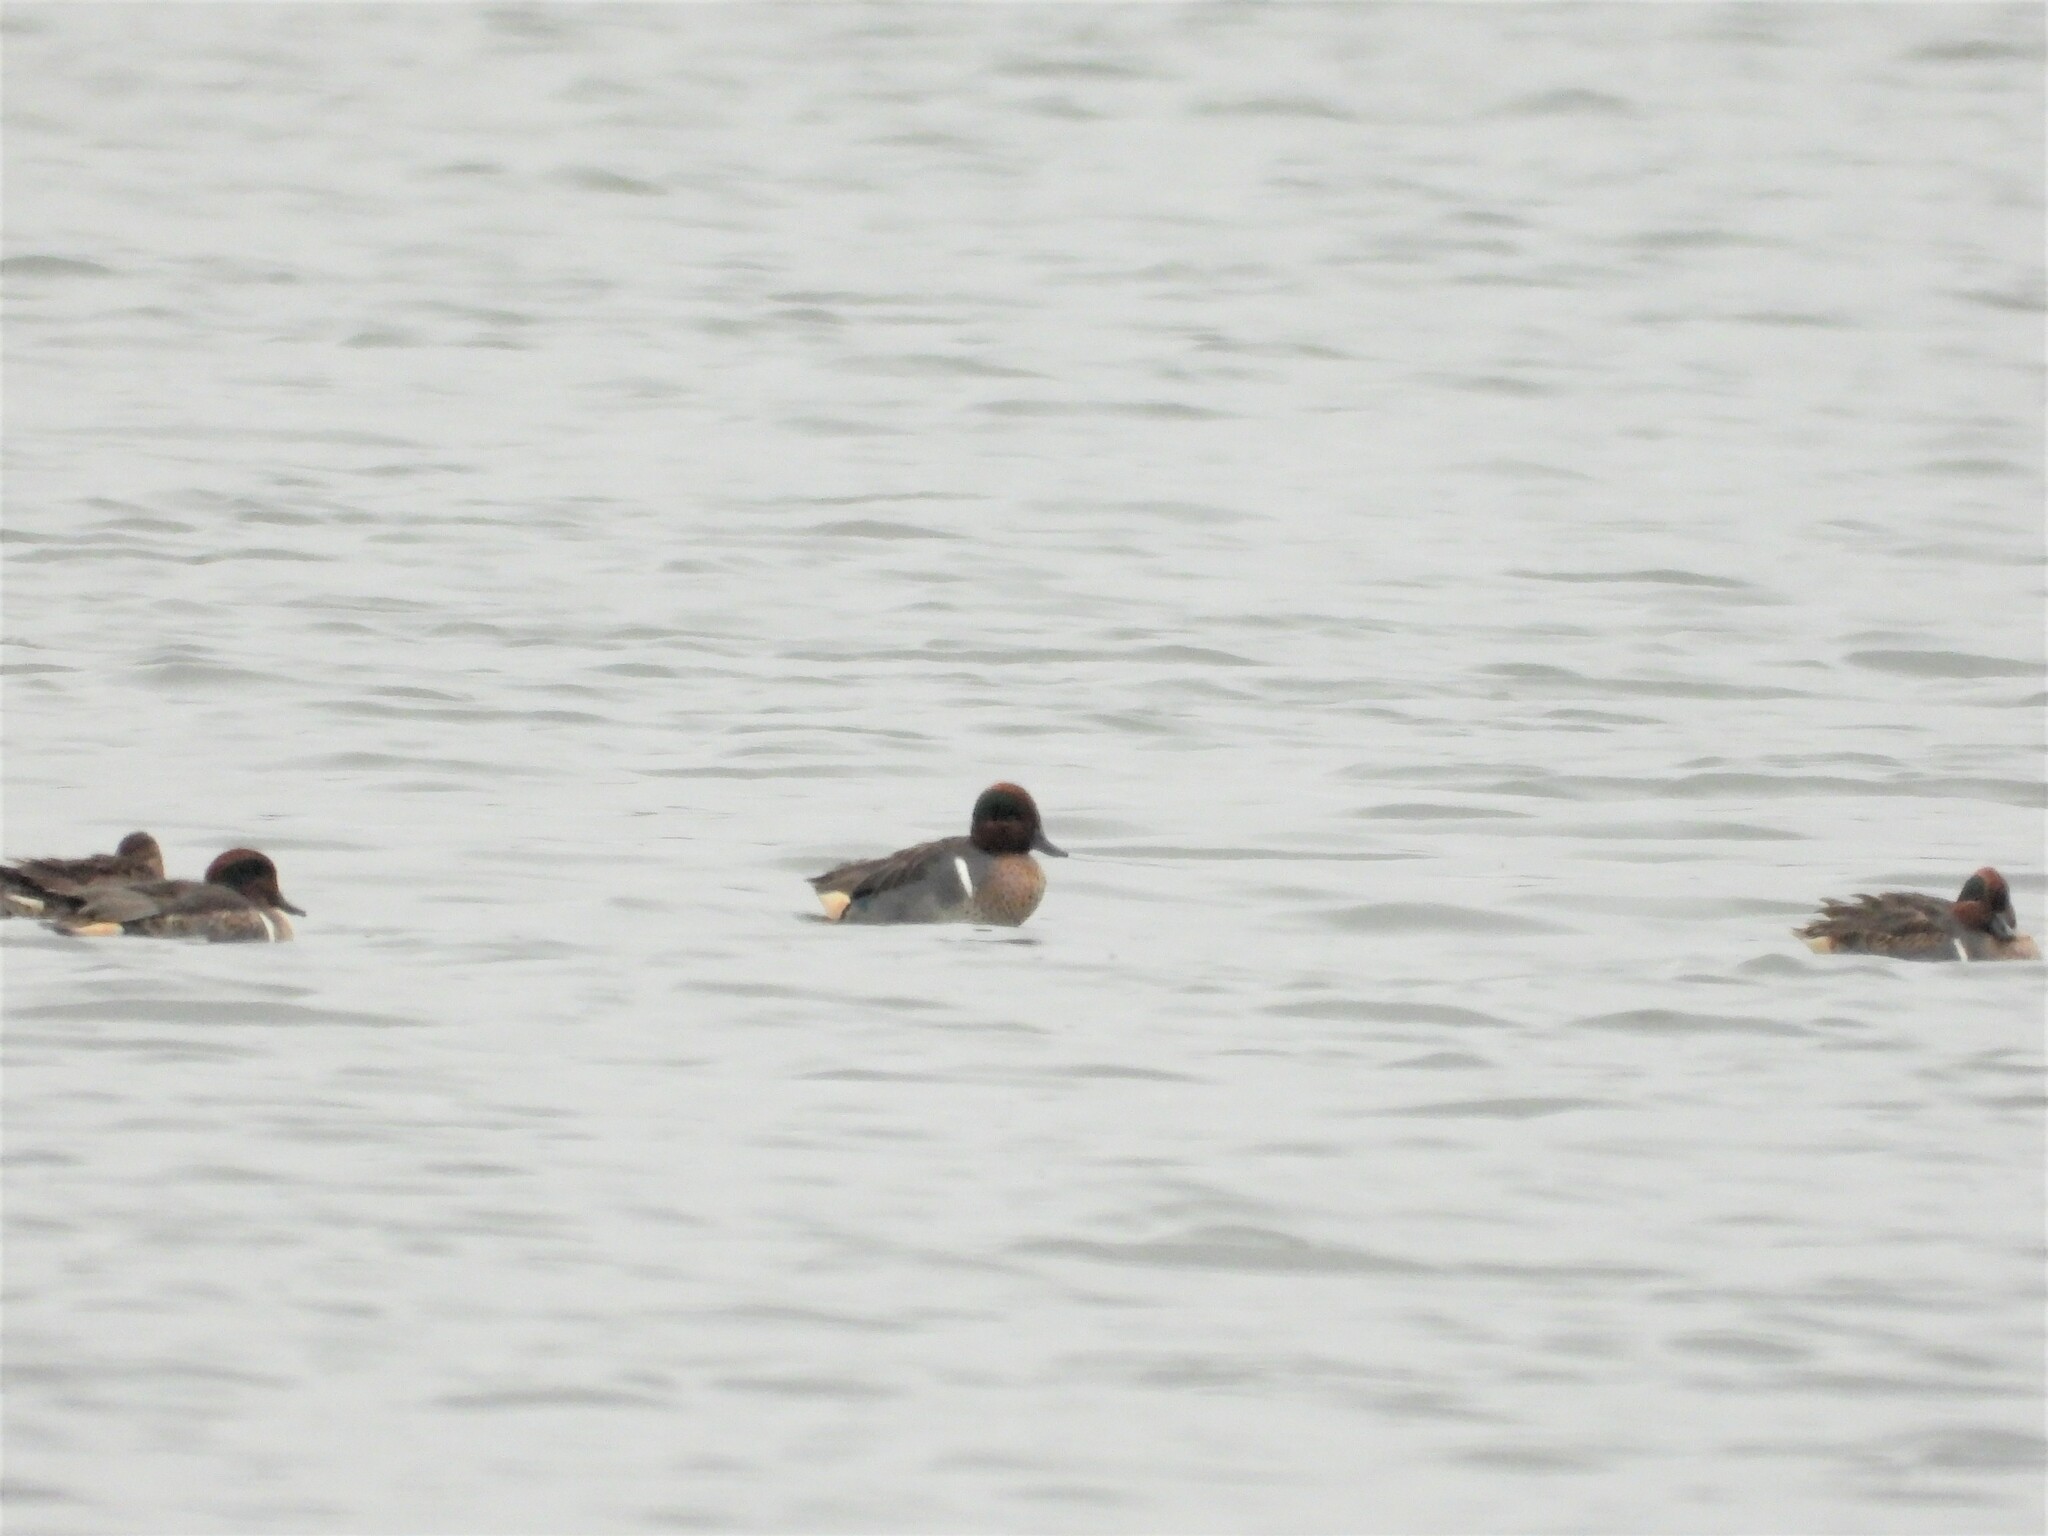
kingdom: Animalia
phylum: Chordata
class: Aves
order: Anseriformes
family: Anatidae
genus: Anas
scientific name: Anas crecca
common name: Eurasian teal
